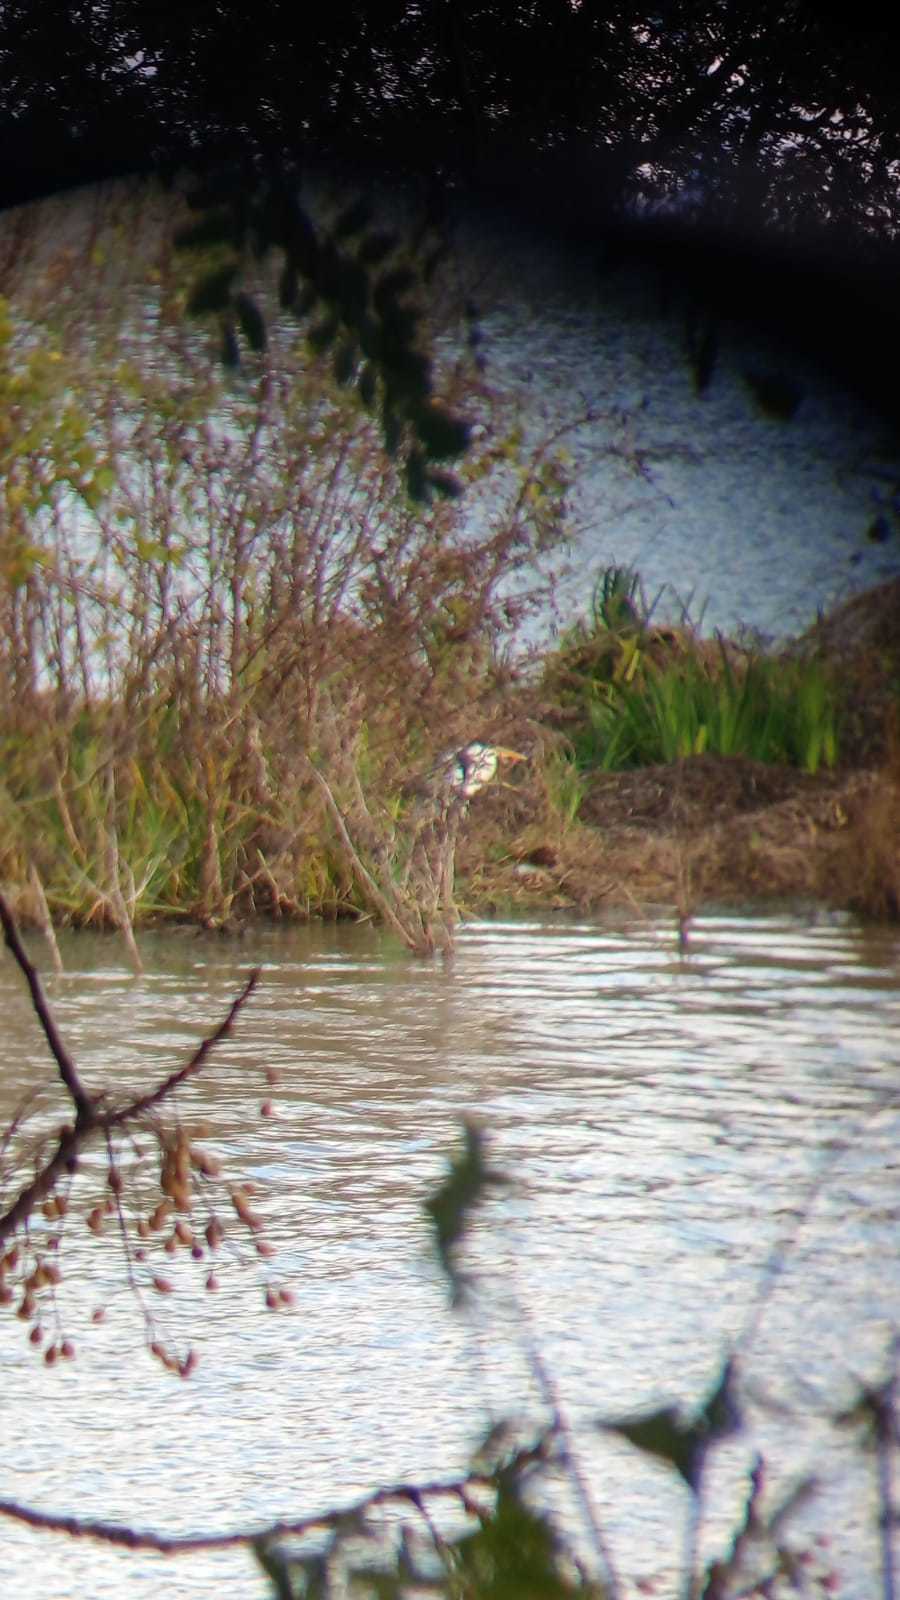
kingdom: Animalia
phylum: Chordata
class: Aves
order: Pelecaniformes
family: Ardeidae
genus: Ardea
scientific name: Ardea cocoi
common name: Cocoi heron
